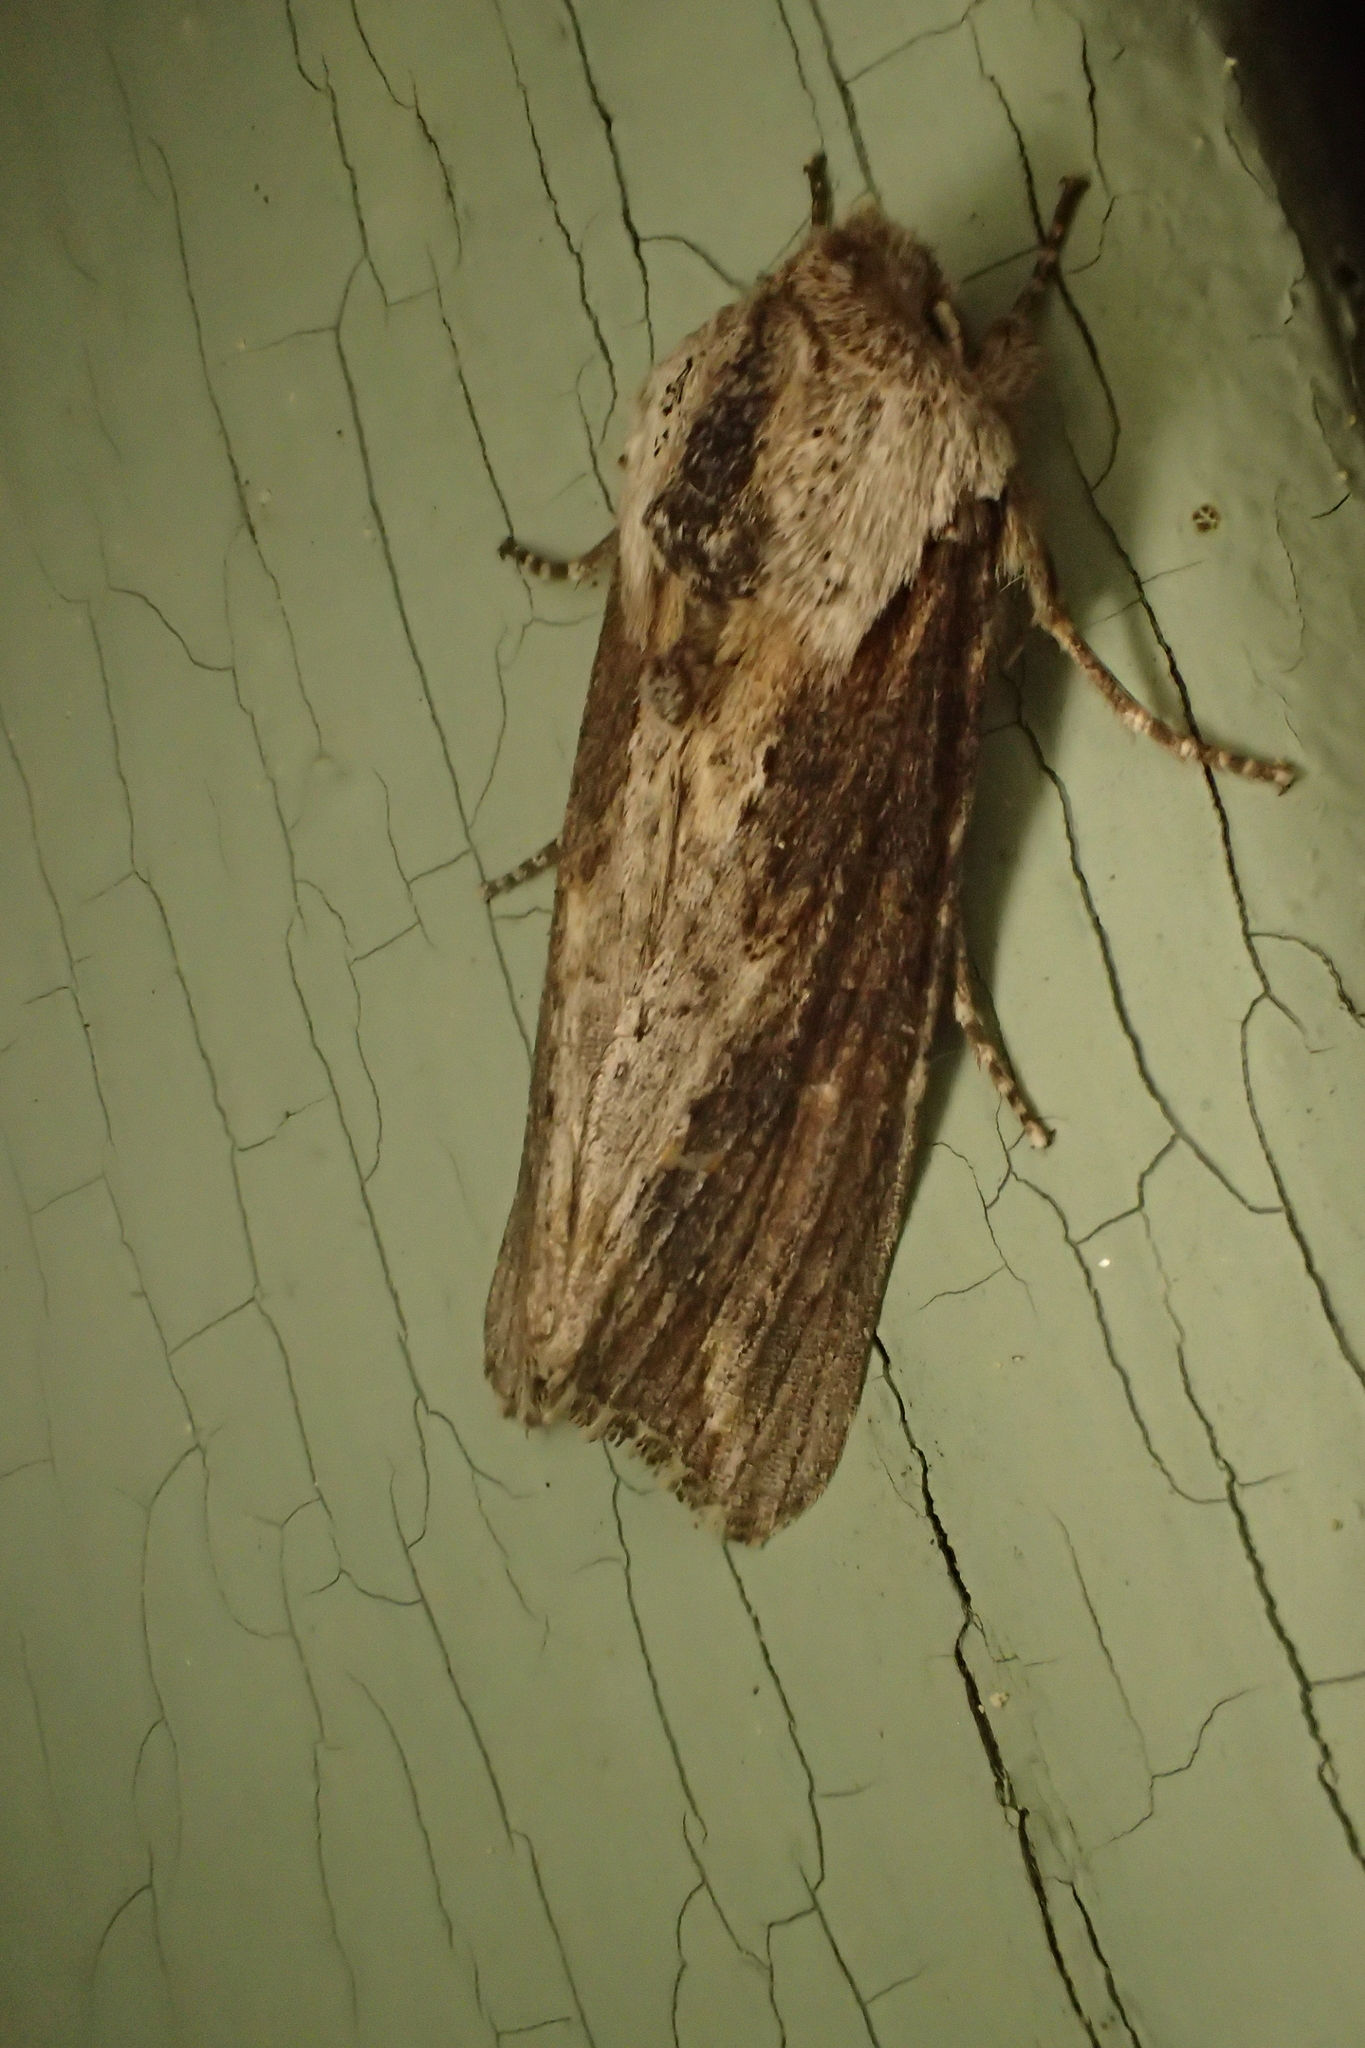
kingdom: Animalia
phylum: Arthropoda
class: Insecta
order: Lepidoptera
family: Noctuidae
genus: Egira
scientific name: Egira conspicillaris
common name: Silver cloud
